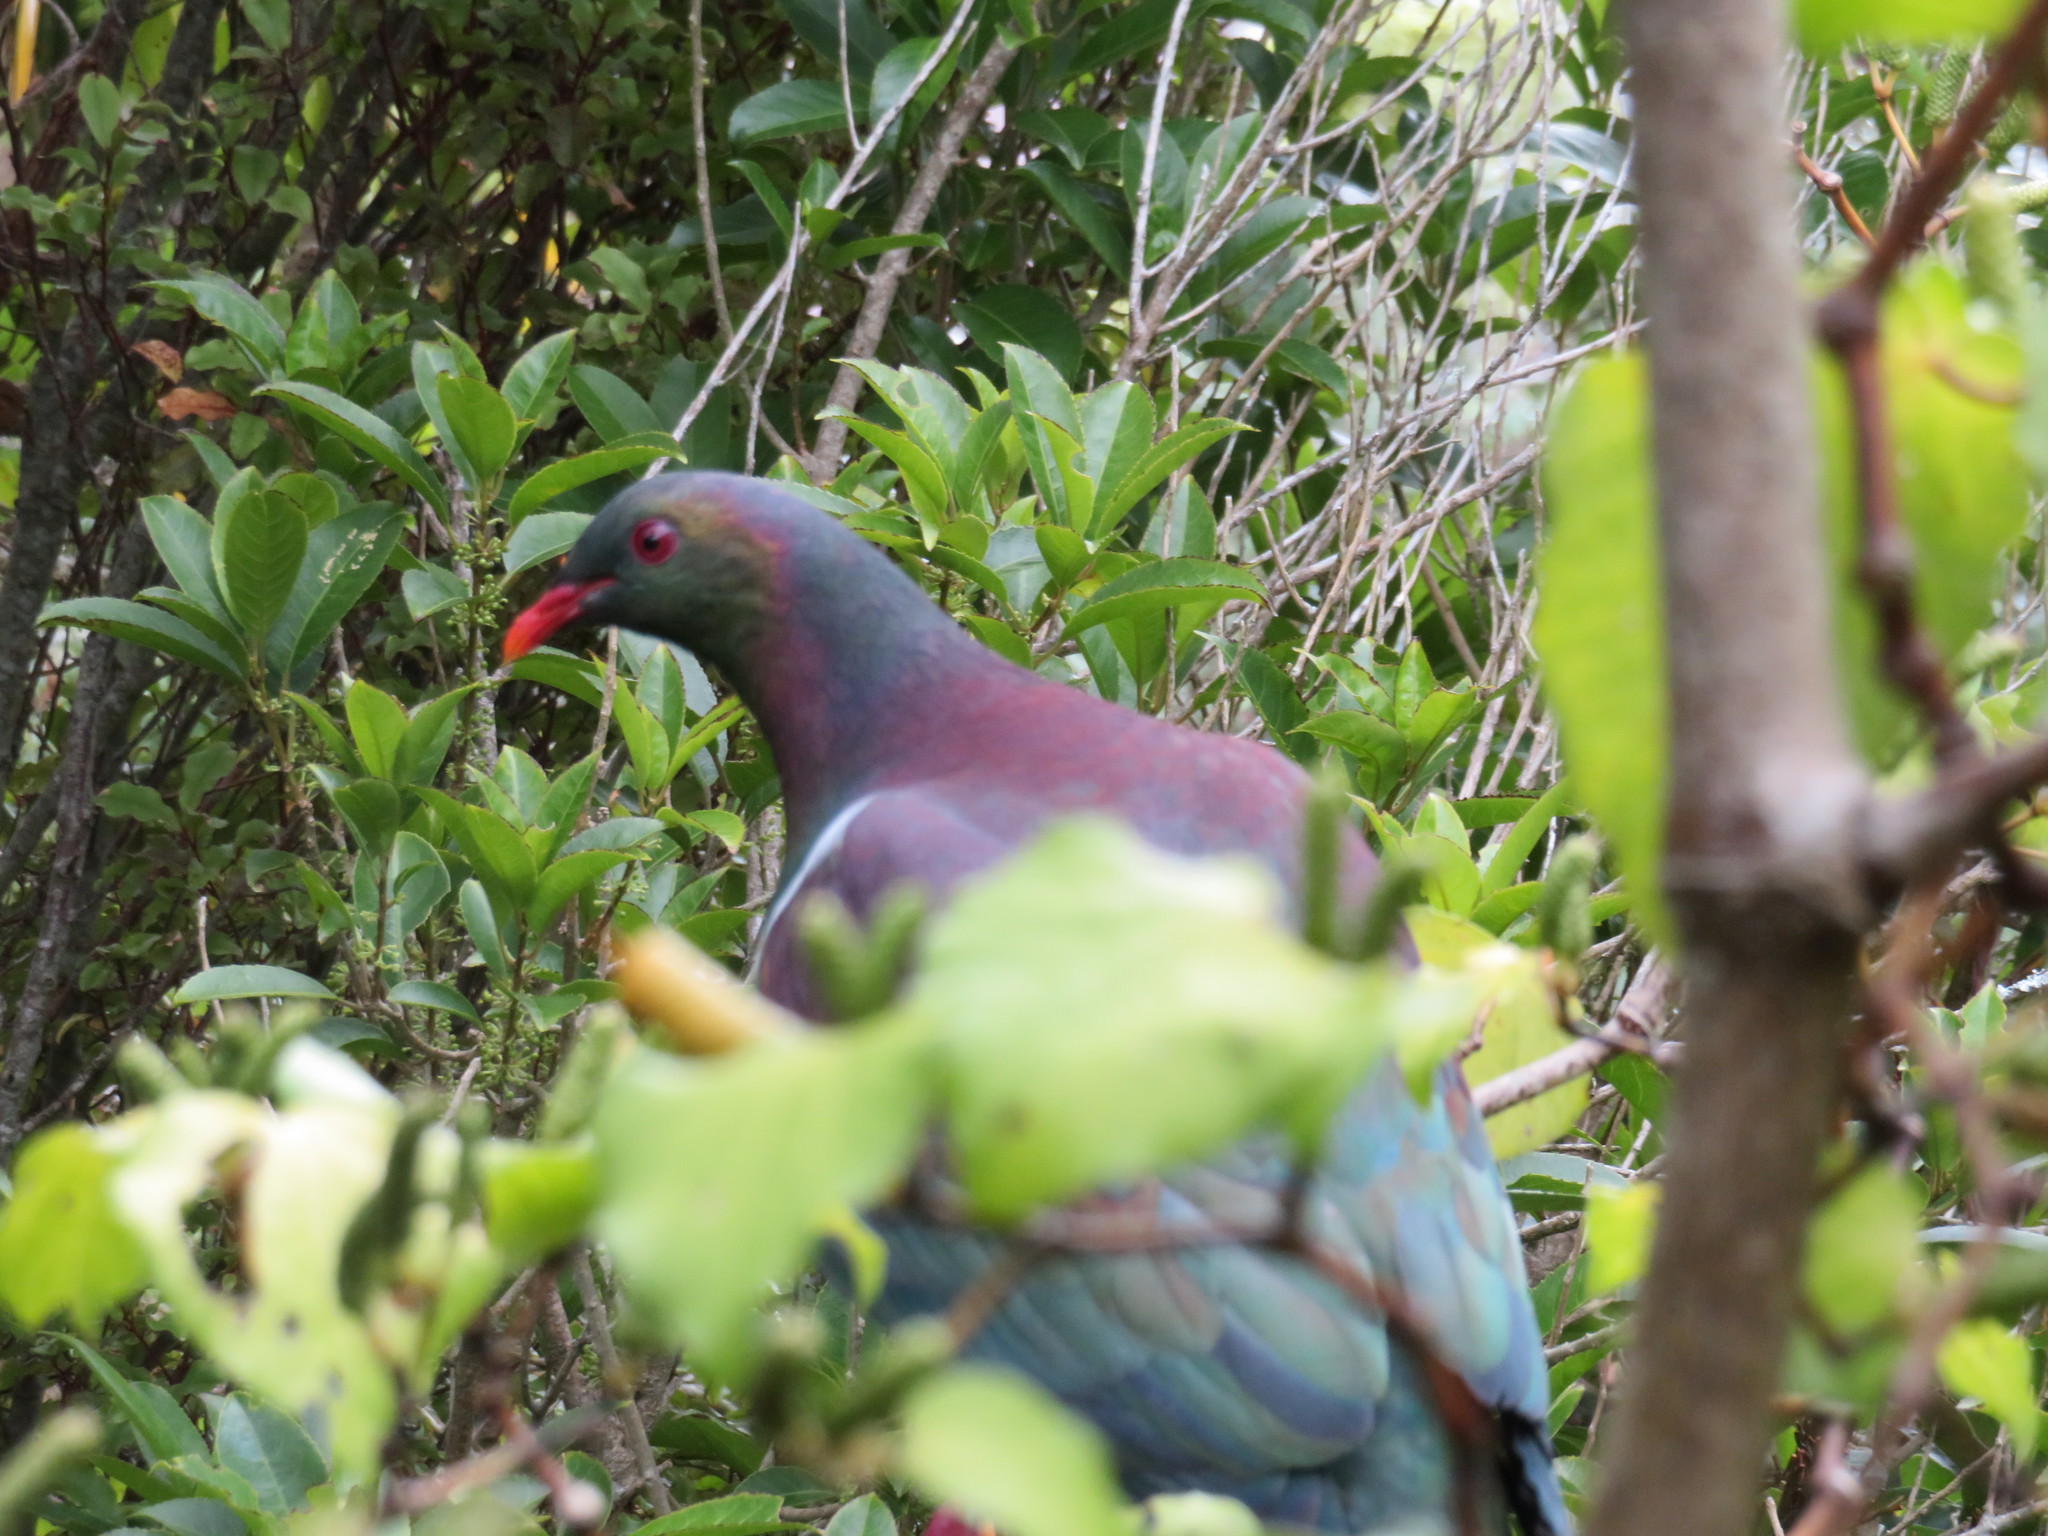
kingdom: Animalia
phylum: Chordata
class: Aves
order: Columbiformes
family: Columbidae
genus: Hemiphaga
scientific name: Hemiphaga novaeseelandiae
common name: New zealand pigeon
